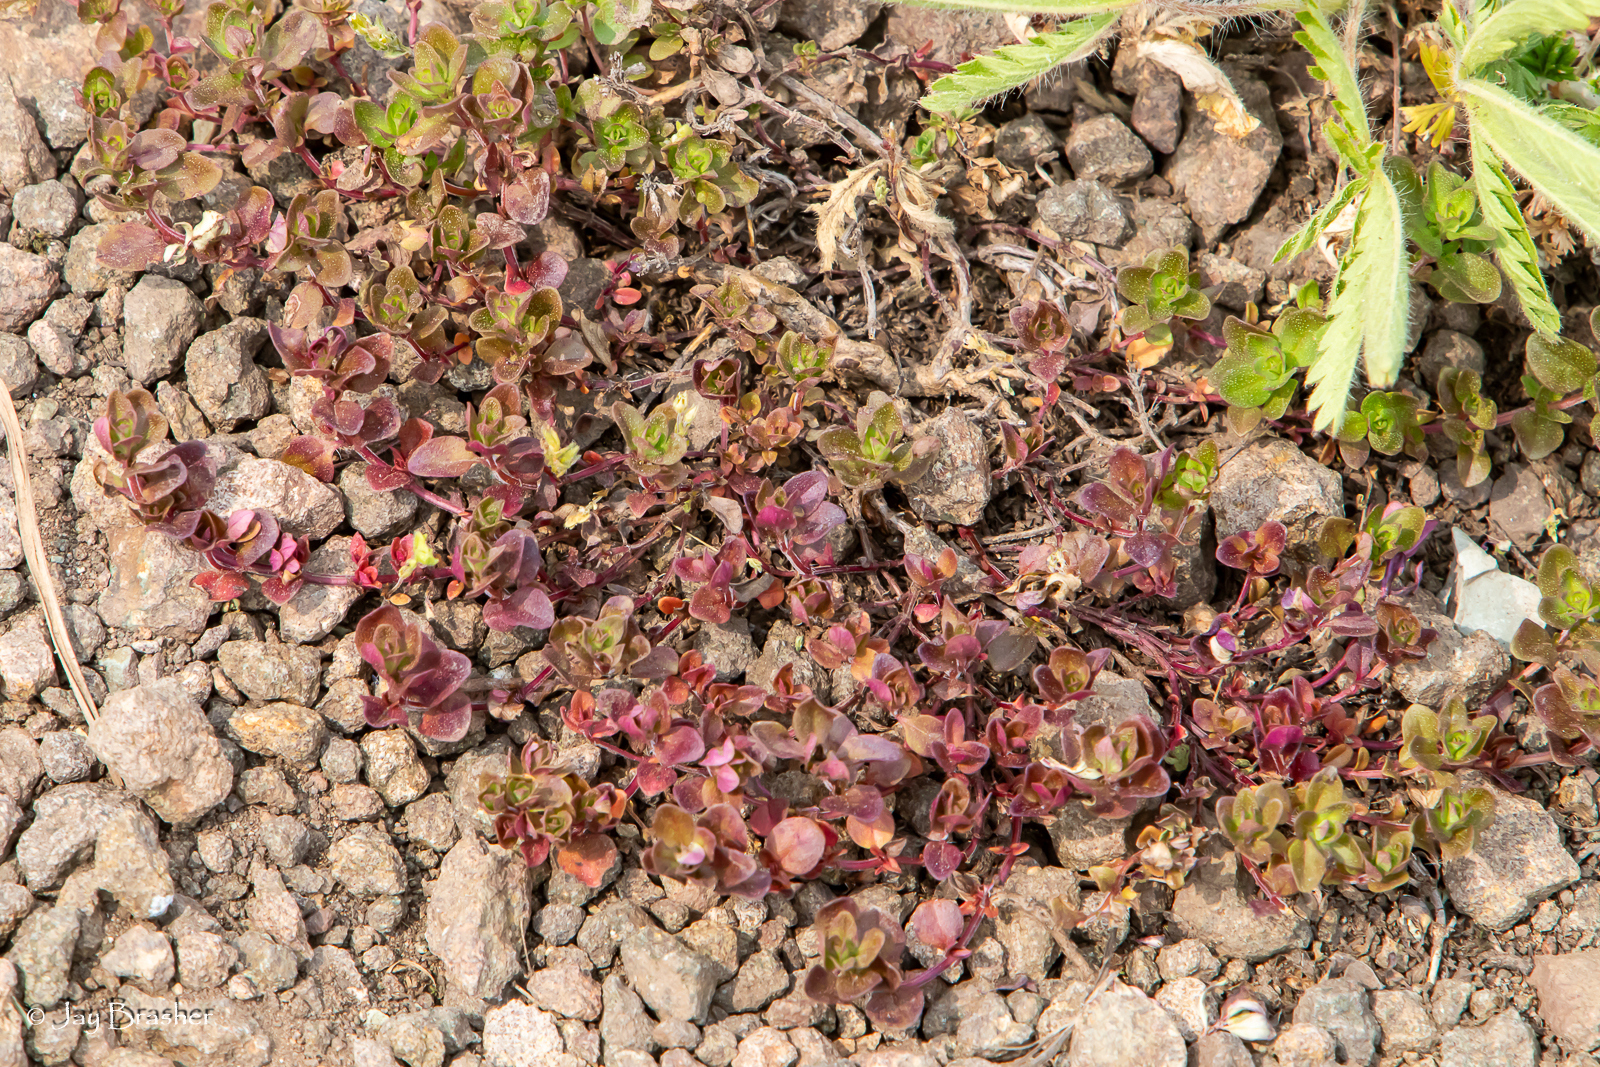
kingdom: Plantae
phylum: Tracheophyta
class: Magnoliopsida
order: Caryophyllales
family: Caryophyllaceae
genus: Stellaria
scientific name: Stellaria media
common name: Common chickweed
